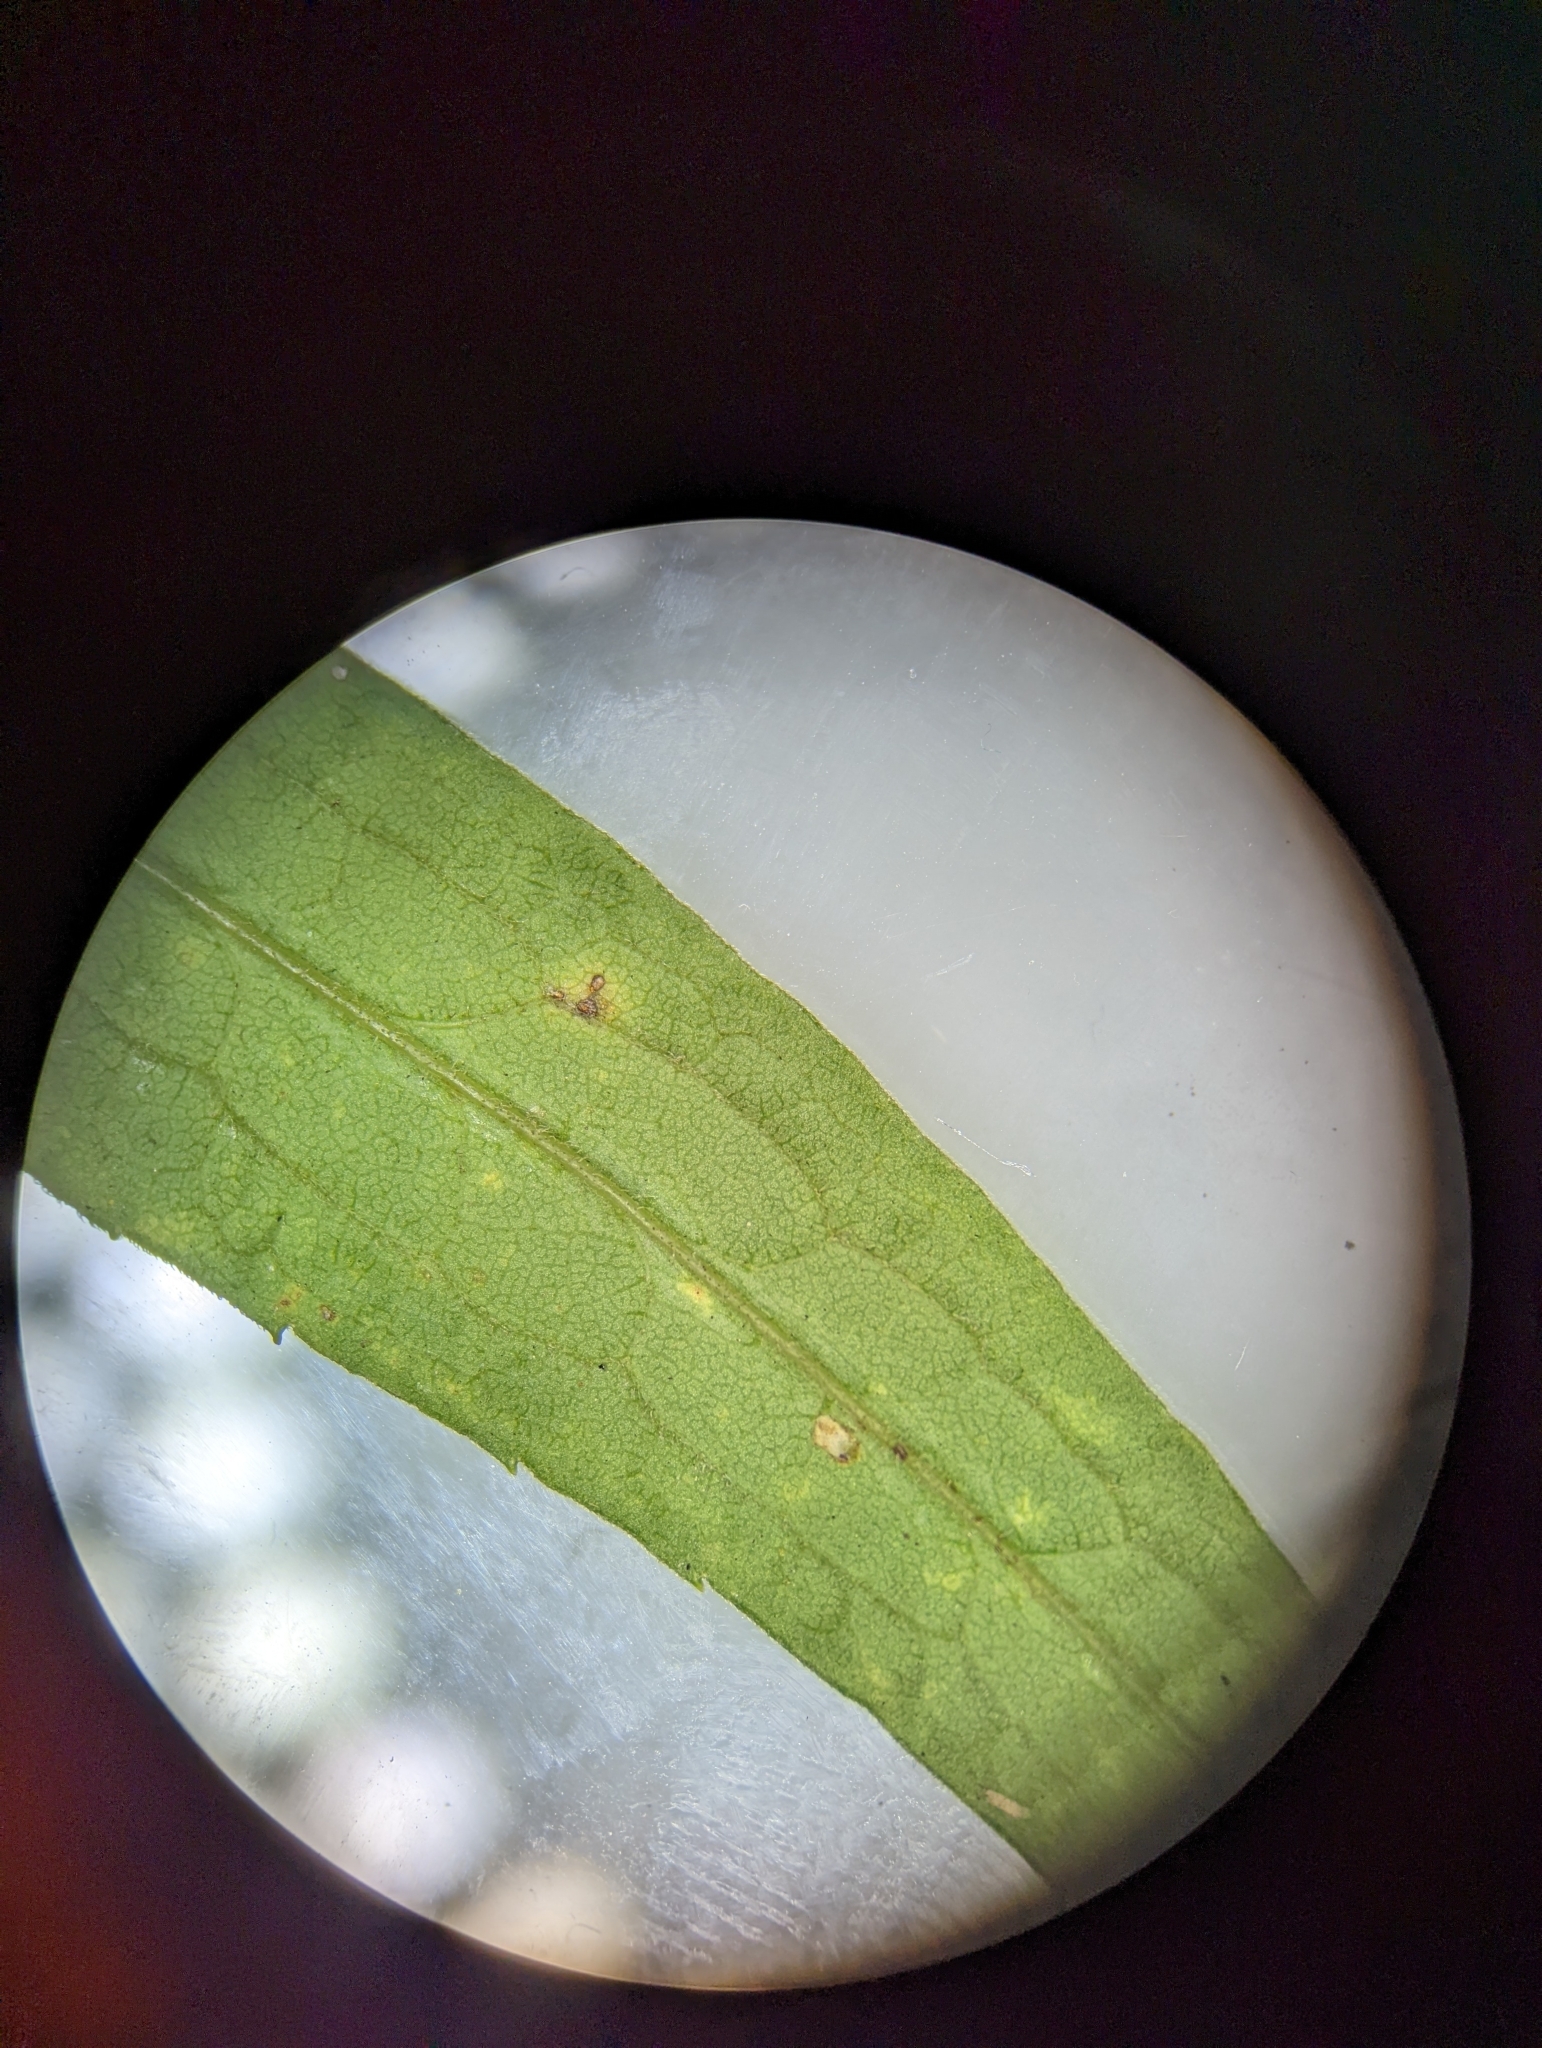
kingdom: Plantae
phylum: Tracheophyta
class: Magnoliopsida
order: Asterales
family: Asteraceae
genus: Solidago
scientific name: Solidago gigantea
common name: Giant goldenrod
